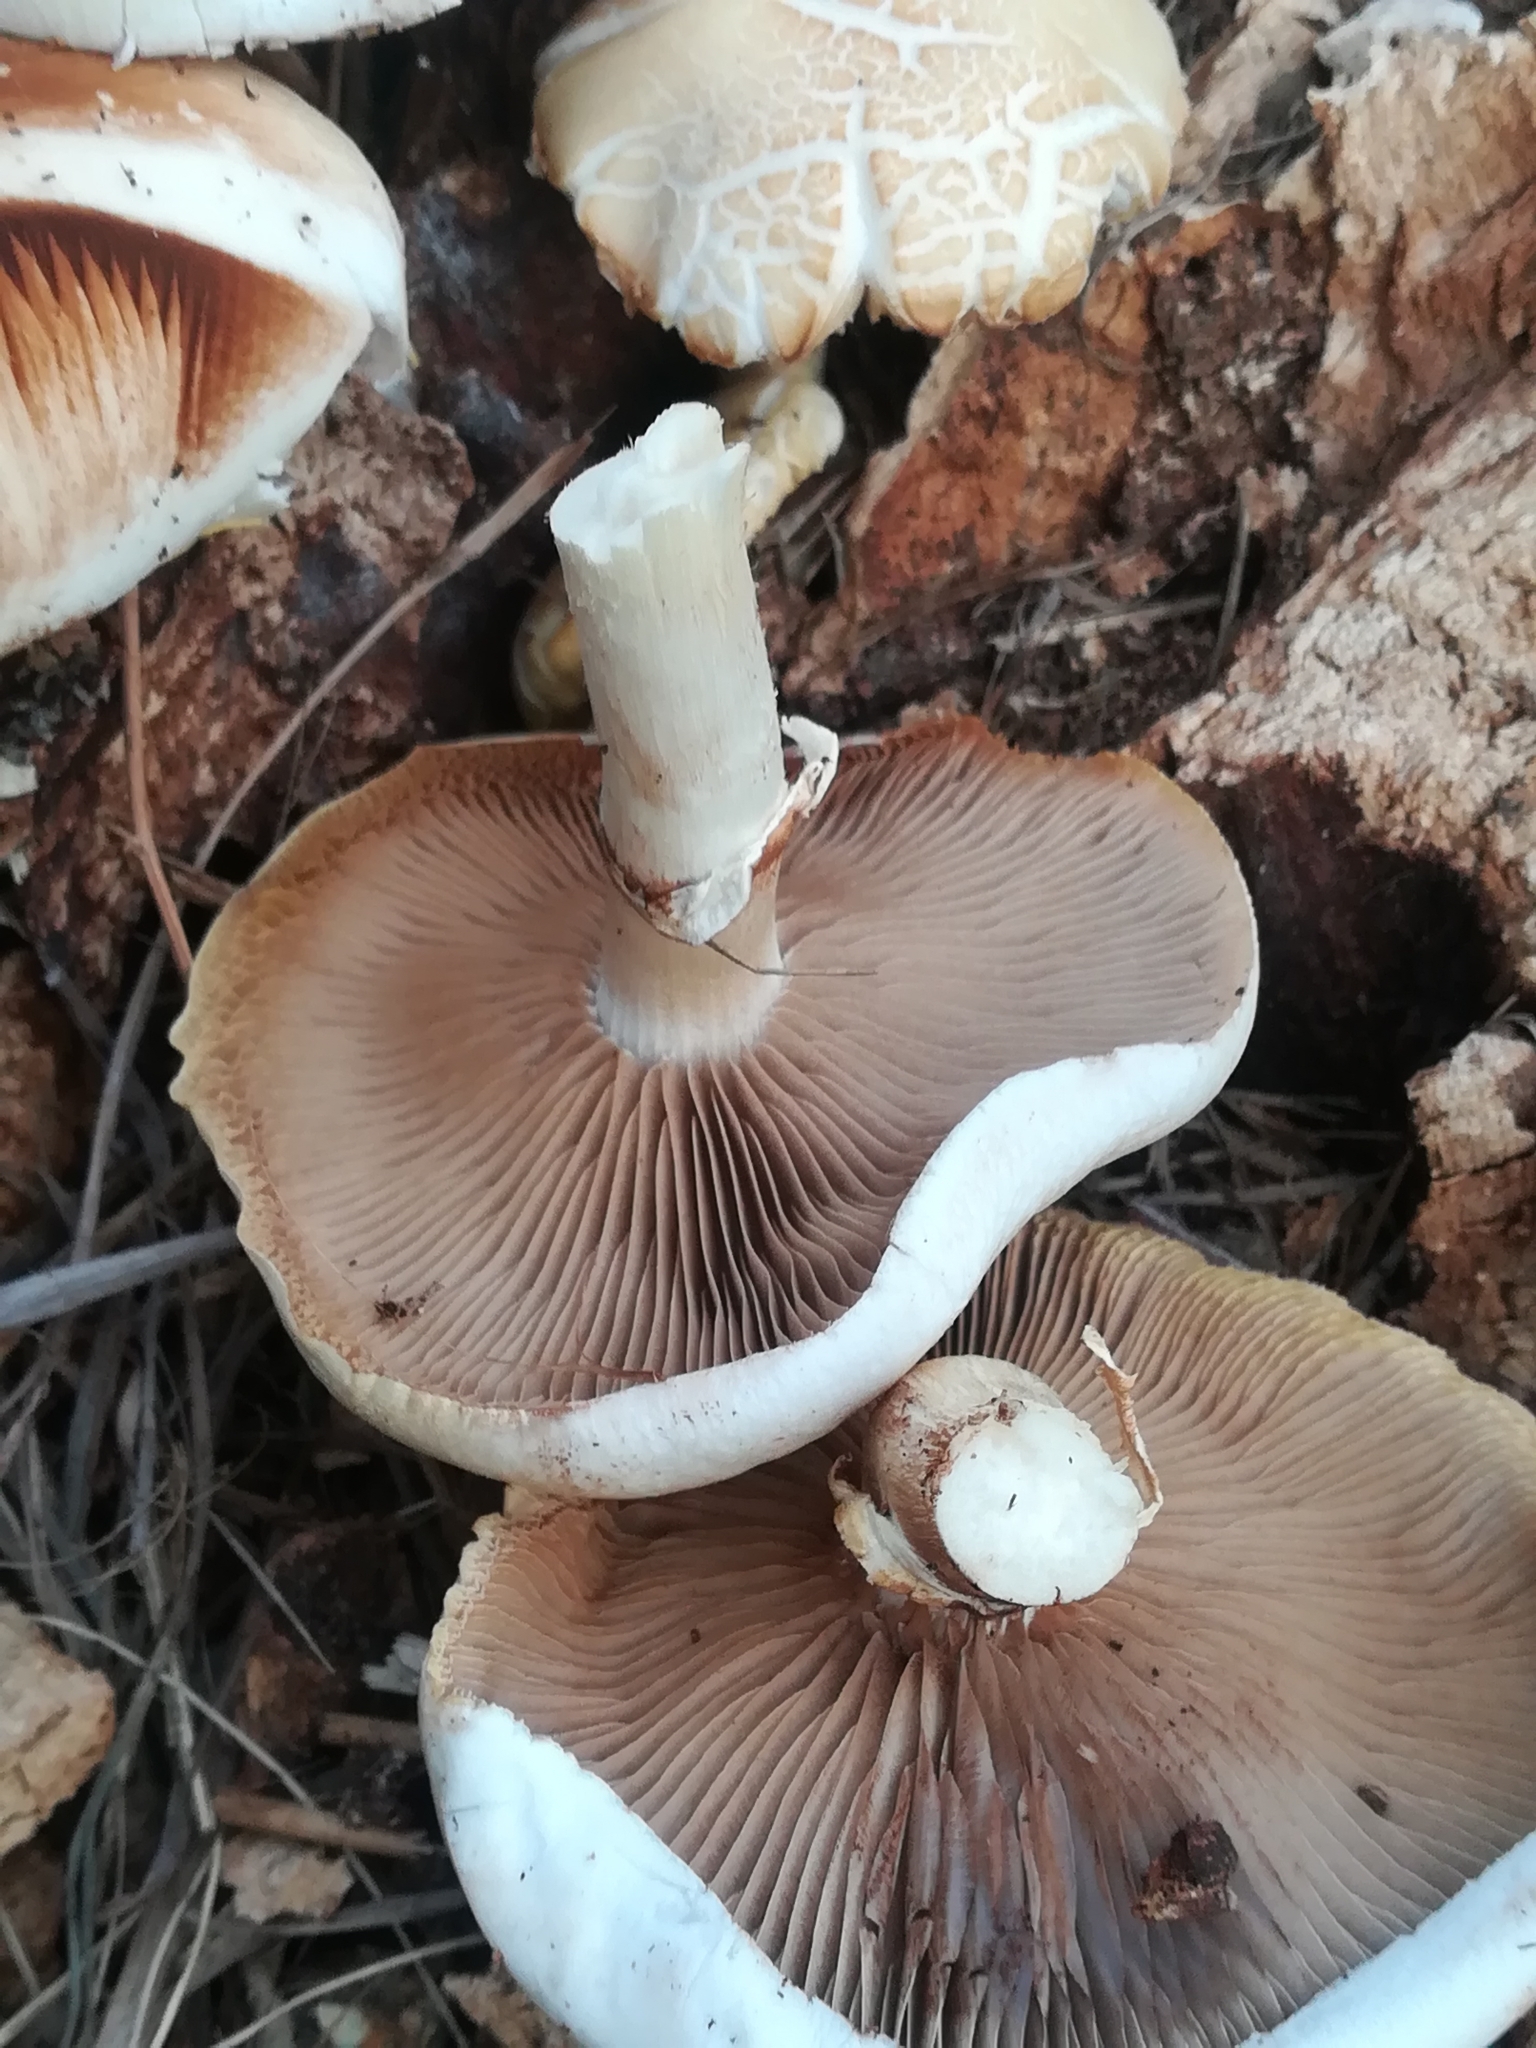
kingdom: Fungi
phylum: Basidiomycota
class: Agaricomycetes
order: Agaricales
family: Tubariaceae
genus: Cyclocybe
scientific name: Cyclocybe cylindracea
